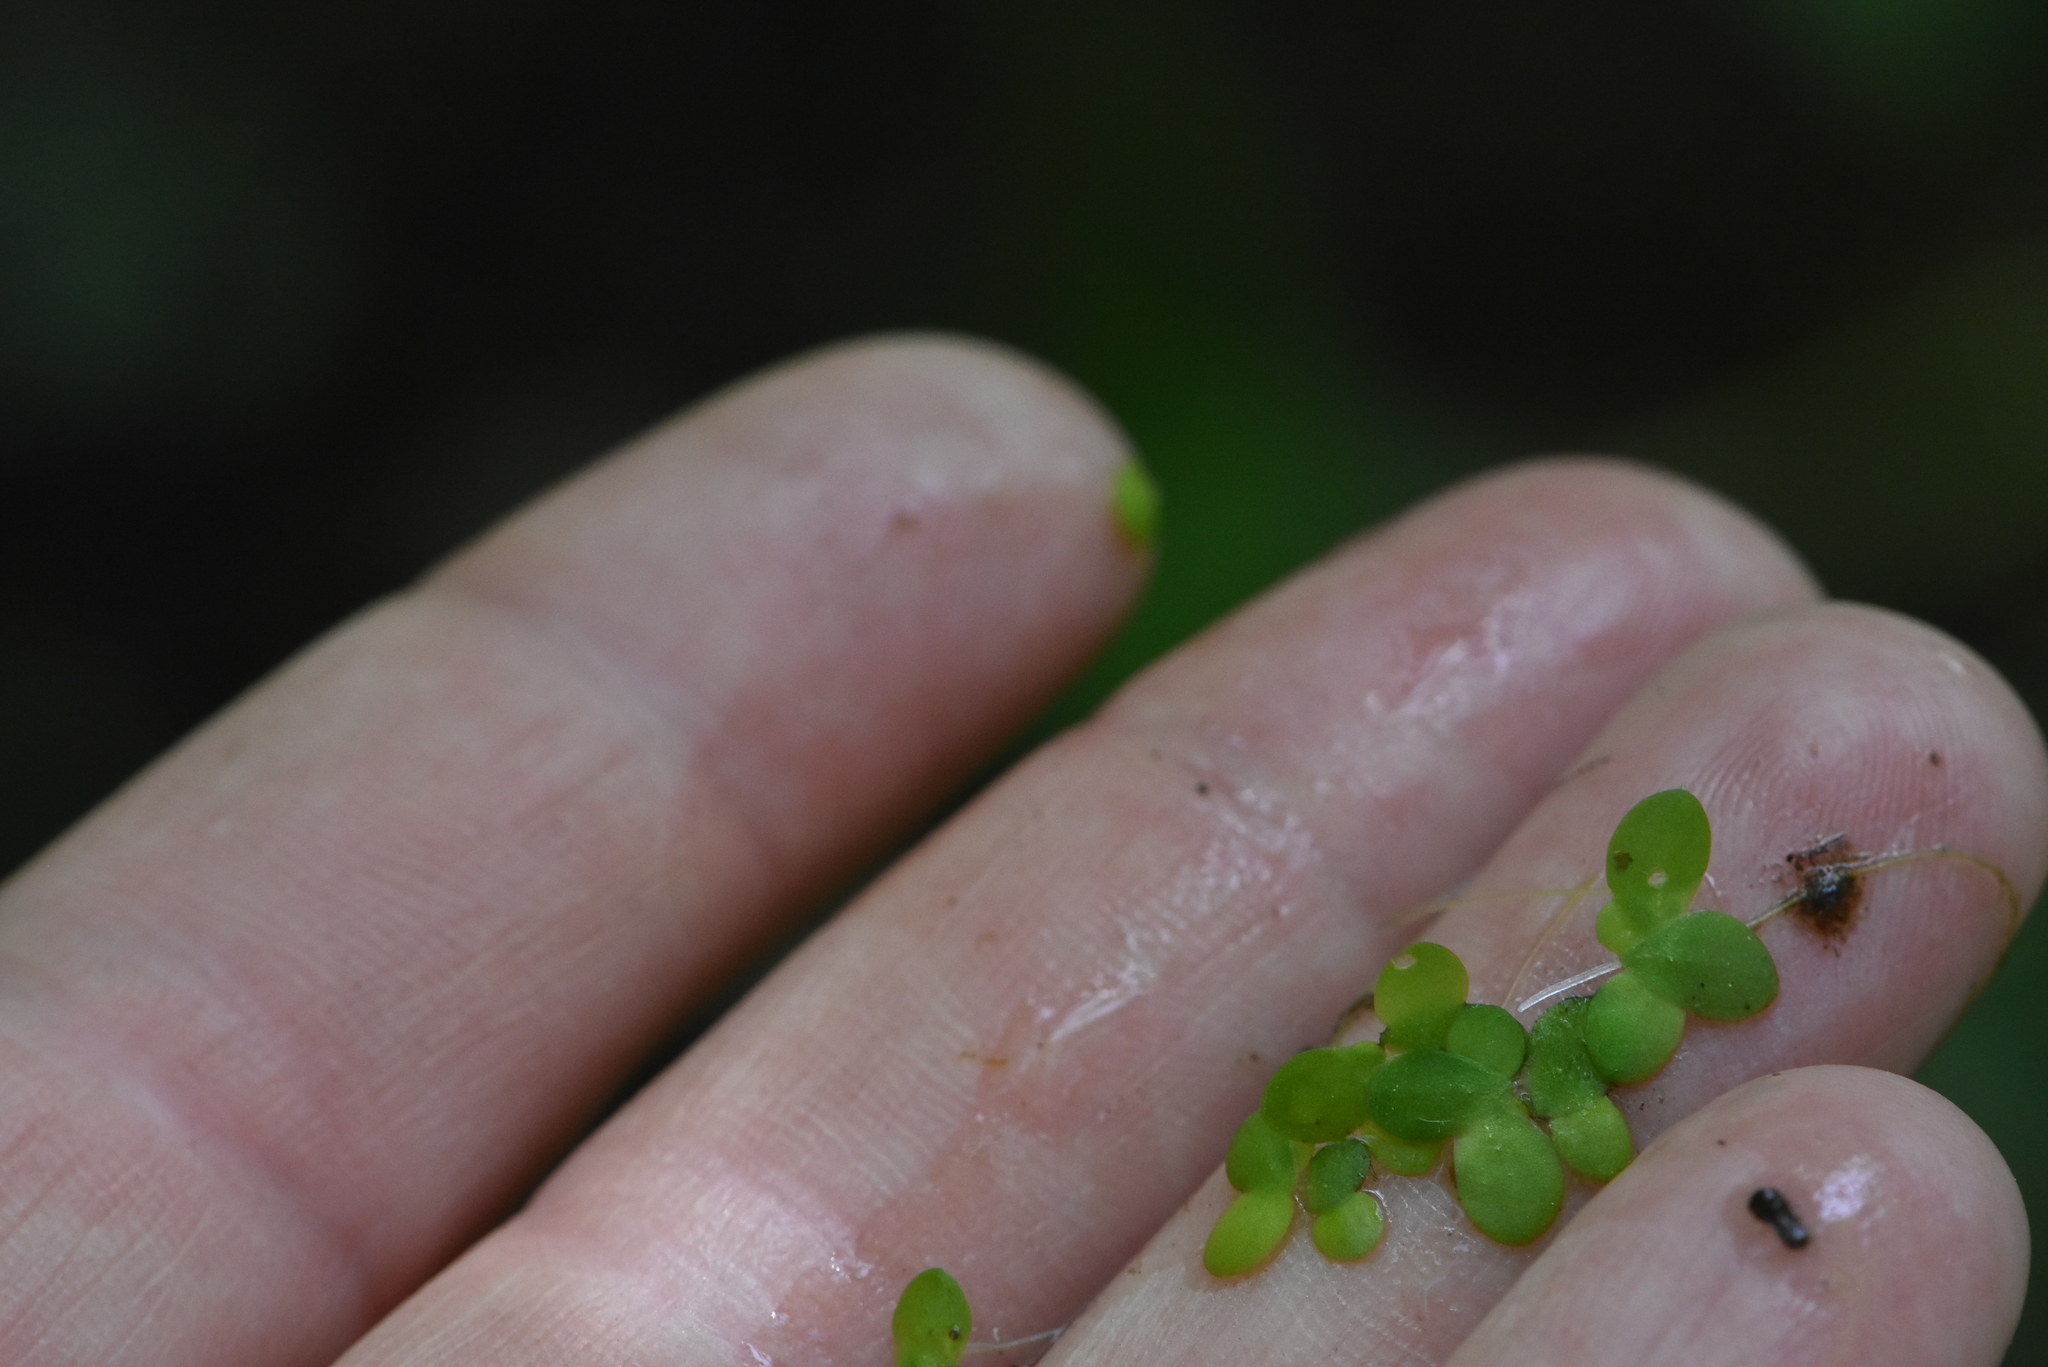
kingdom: Plantae
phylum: Tracheophyta
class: Liliopsida
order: Alismatales
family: Araceae
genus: Lemna
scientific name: Lemna minor
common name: Common duckweed
